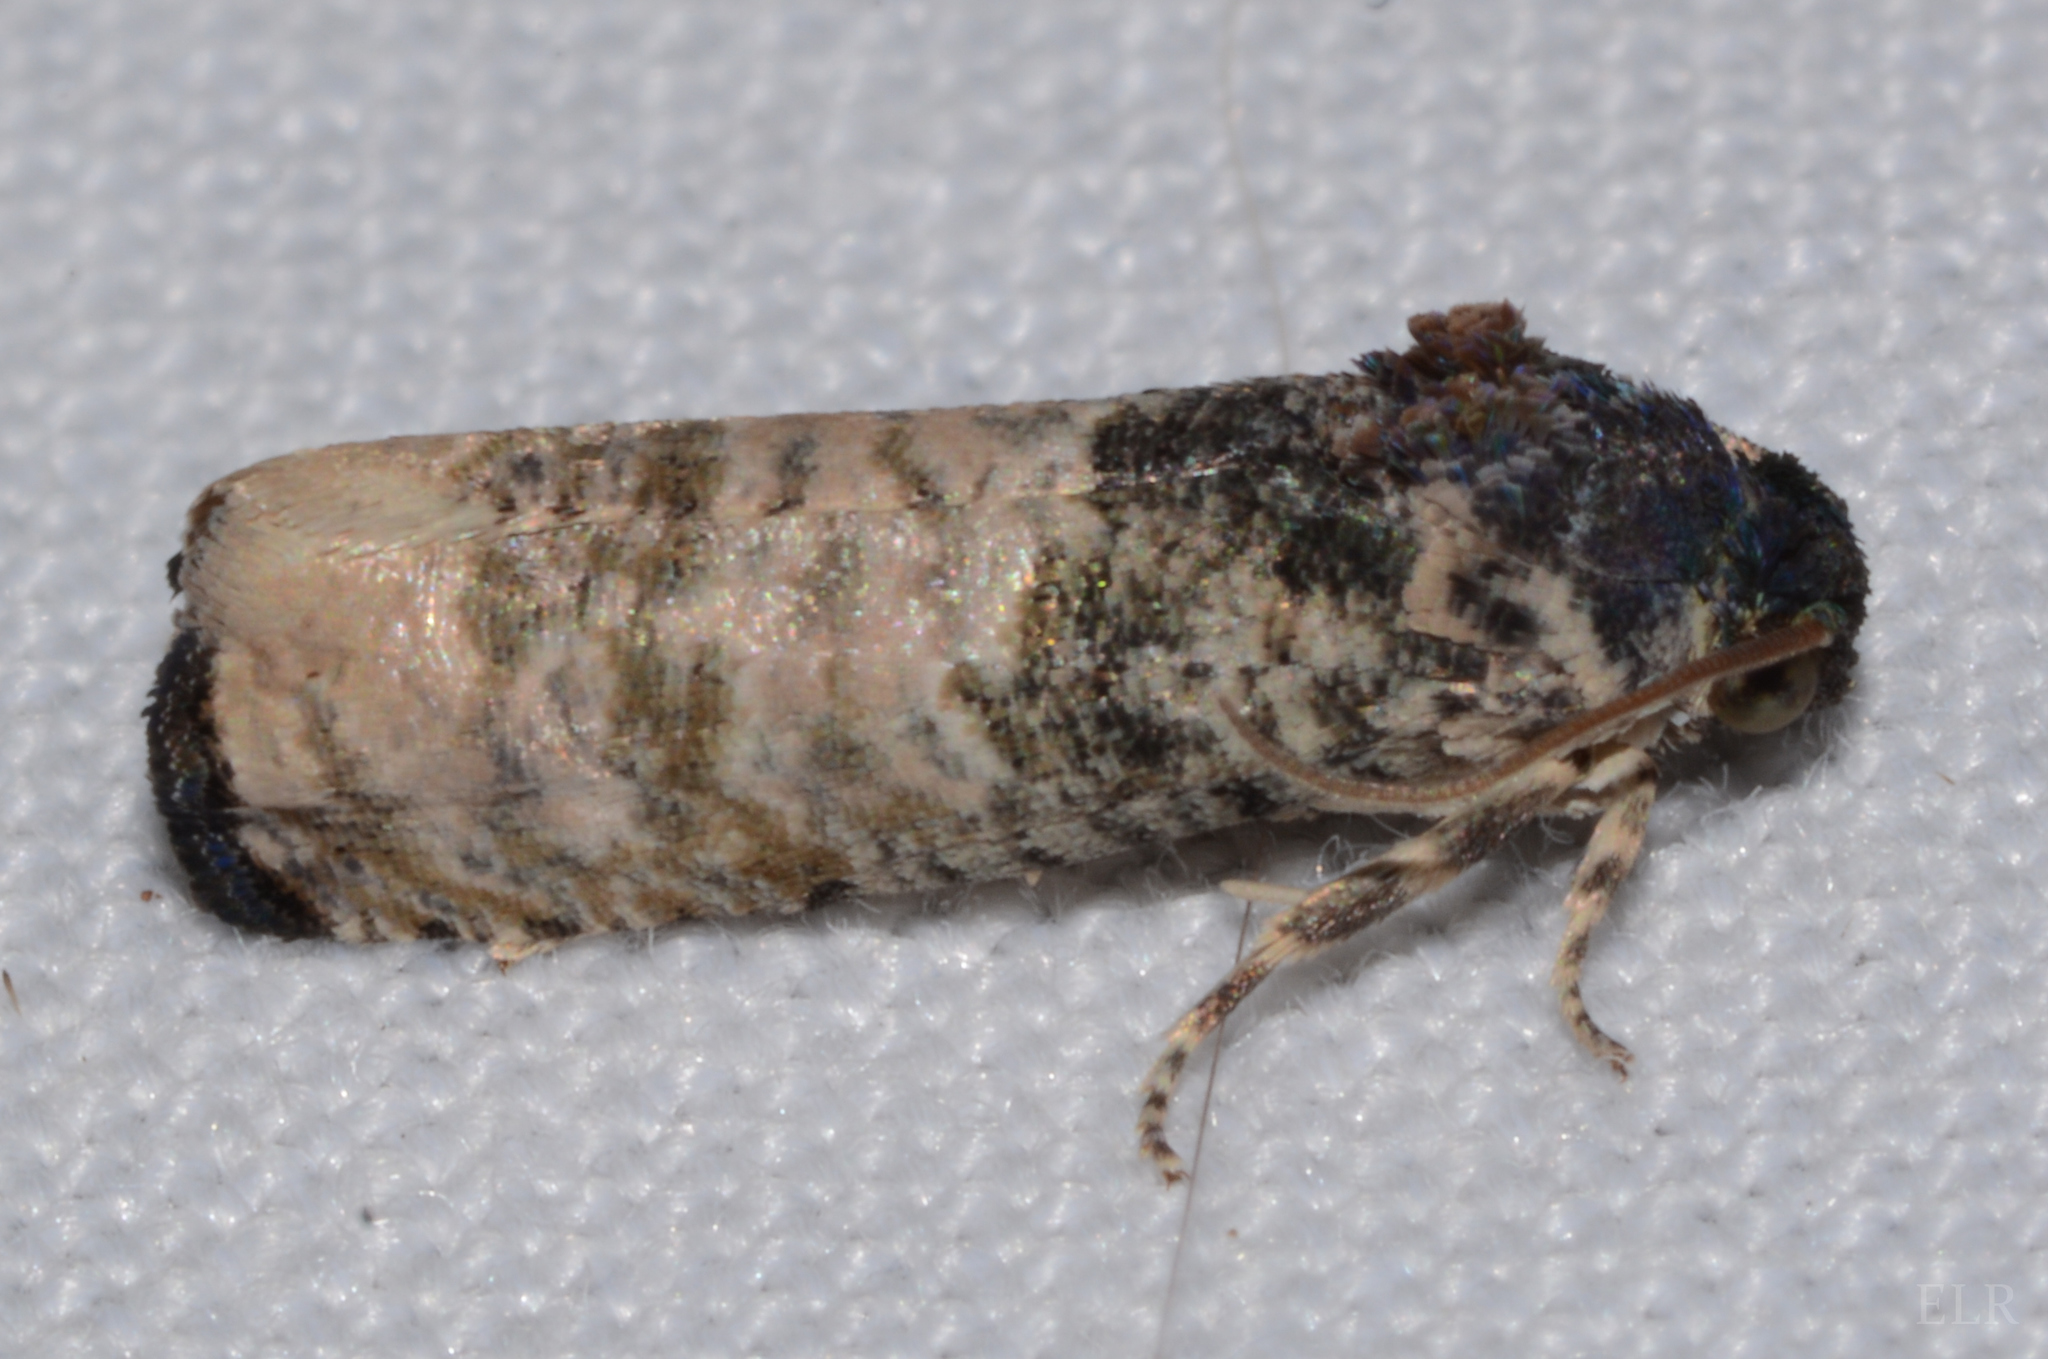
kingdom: Animalia
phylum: Arthropoda
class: Insecta
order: Lepidoptera
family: Tortricidae
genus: Epiblema
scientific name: Epiblema obfuscana
